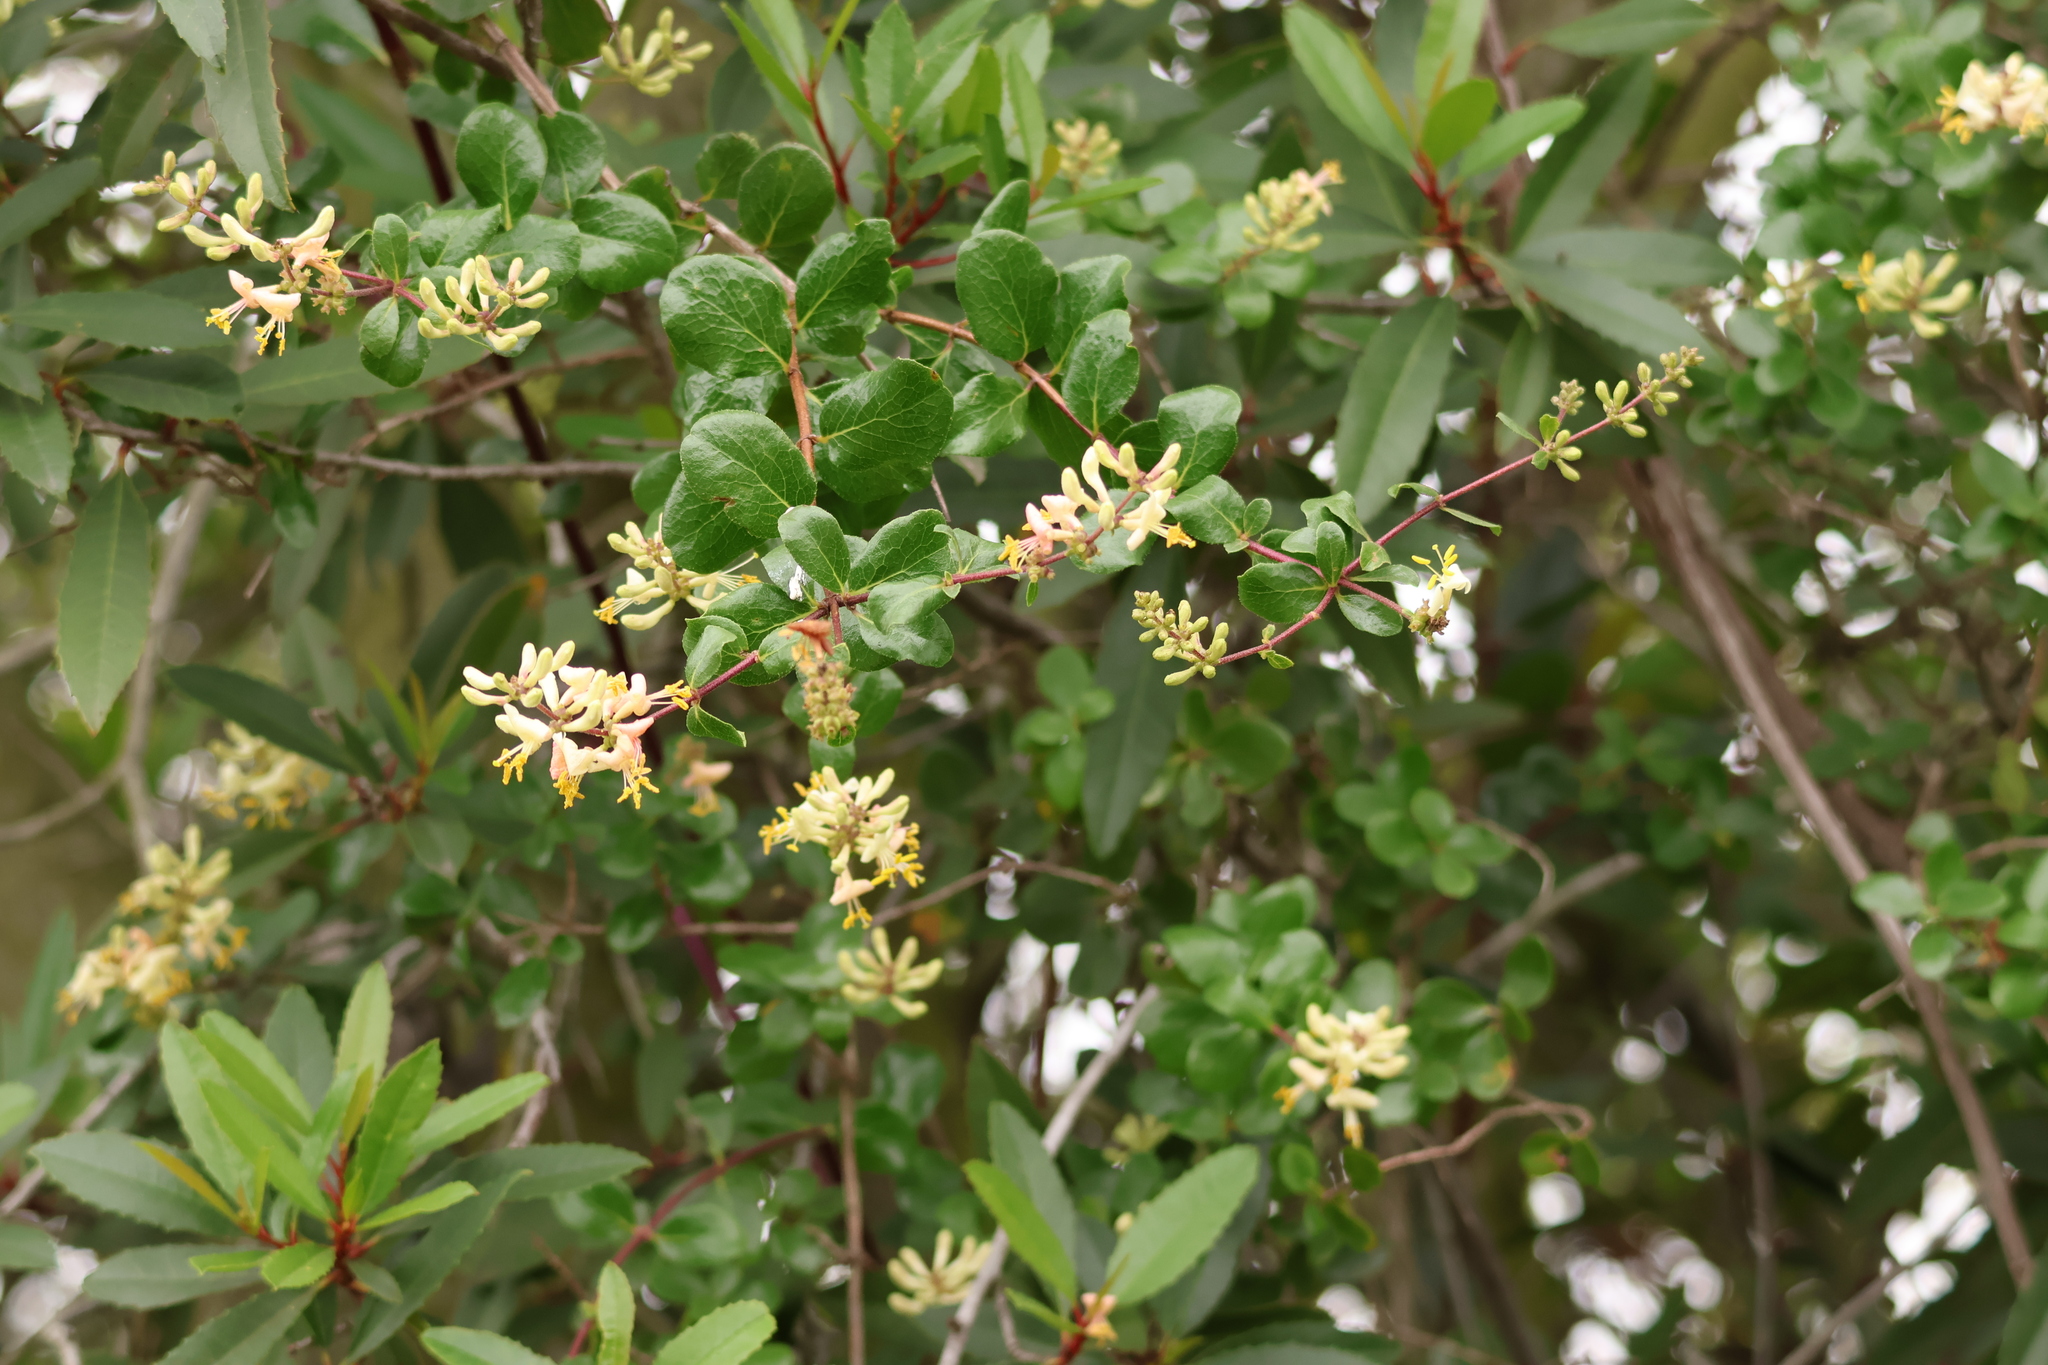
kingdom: Plantae
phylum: Tracheophyta
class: Magnoliopsida
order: Dipsacales
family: Caprifoliaceae
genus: Lonicera
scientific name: Lonicera subspicata
